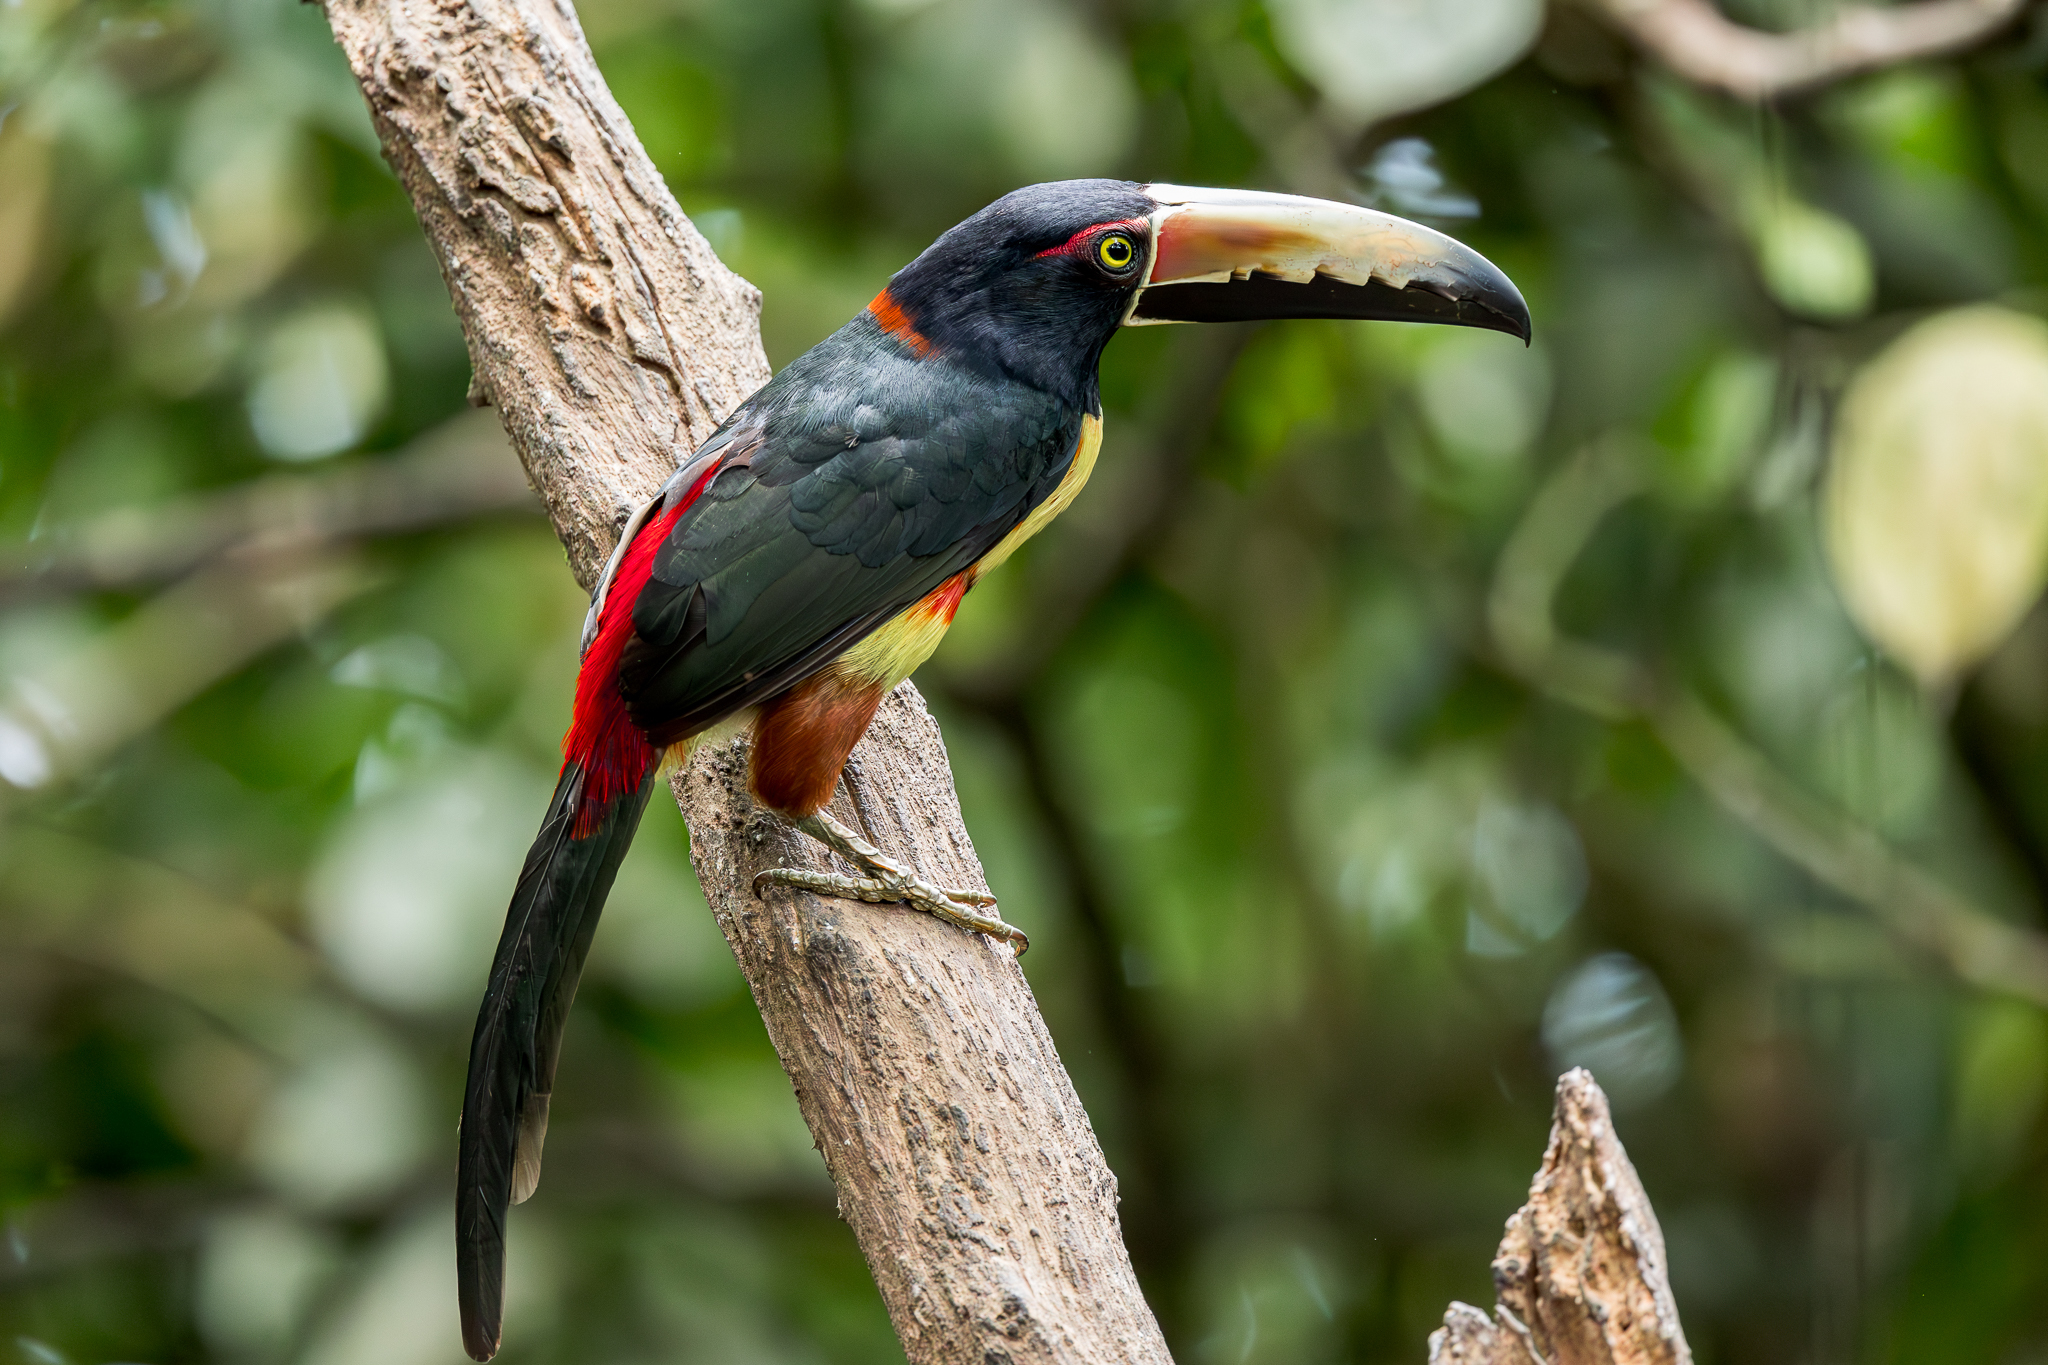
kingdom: Animalia
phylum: Chordata
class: Aves
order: Piciformes
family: Ramphastidae
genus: Pteroglossus
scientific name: Pteroglossus torquatus
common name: Collared aracari
